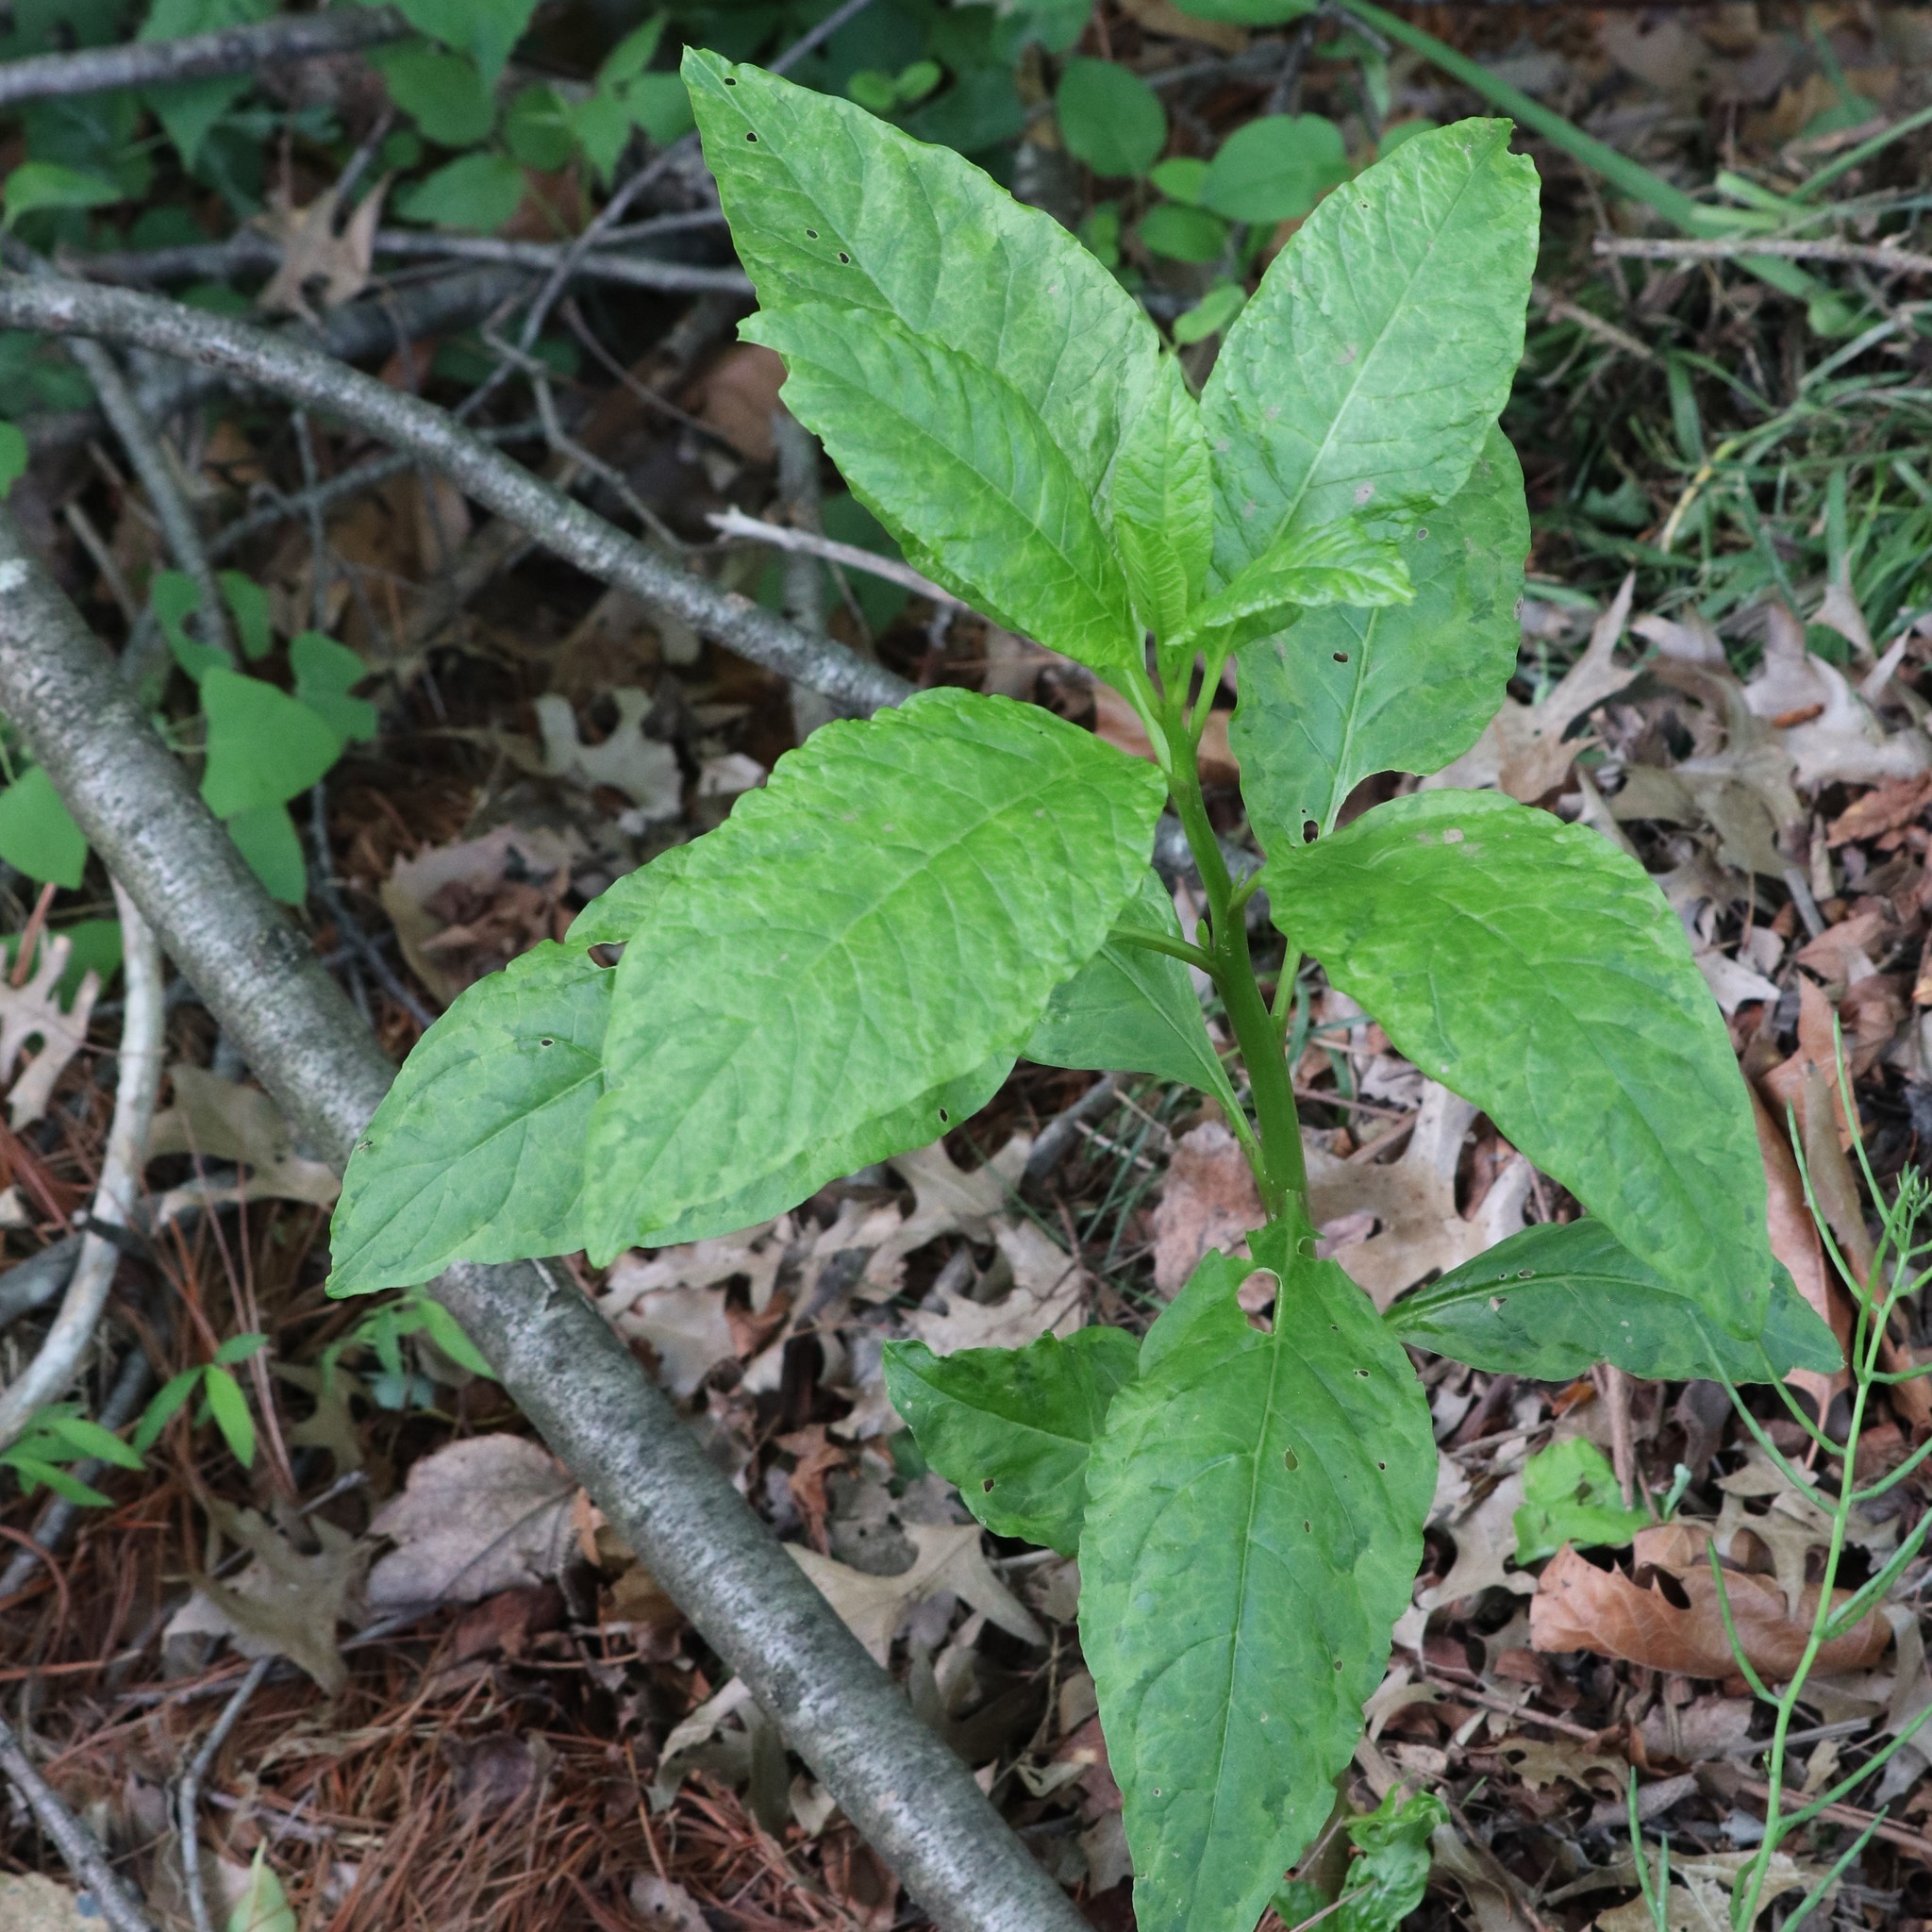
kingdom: Plantae
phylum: Tracheophyta
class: Magnoliopsida
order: Caryophyllales
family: Phytolaccaceae
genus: Phytolacca
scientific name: Phytolacca americana
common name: American pokeweed
